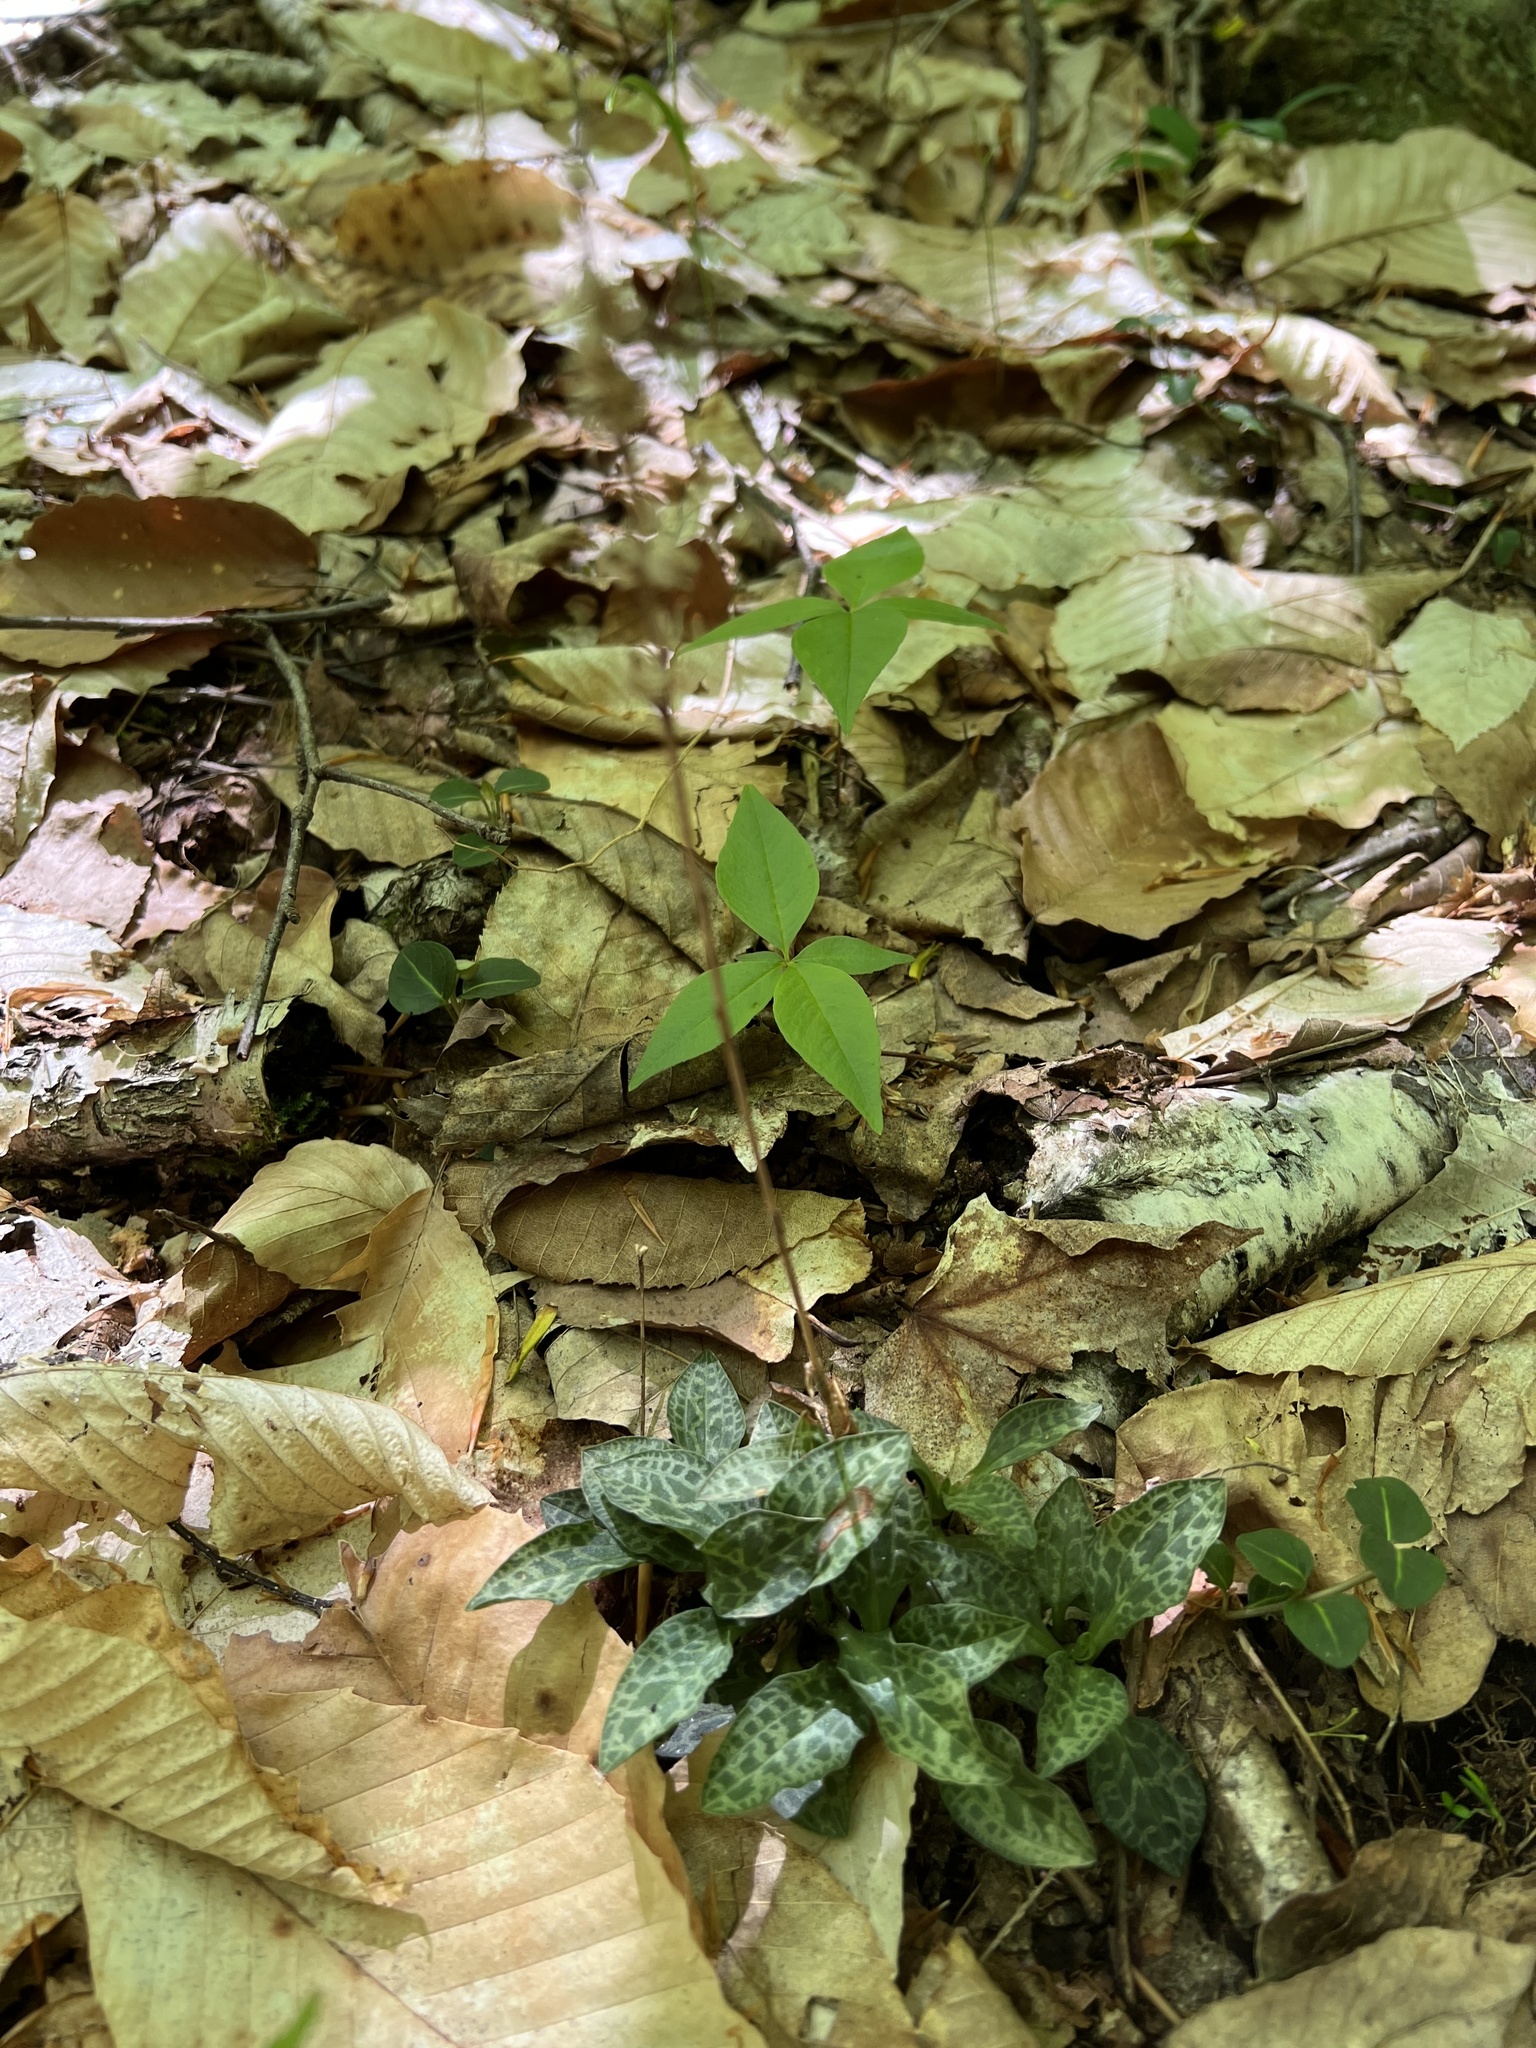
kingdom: Plantae
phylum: Tracheophyta
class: Liliopsida
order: Asparagales
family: Orchidaceae
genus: Goodyera
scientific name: Goodyera tesselata
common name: Checkered rattlesnake-plantain
